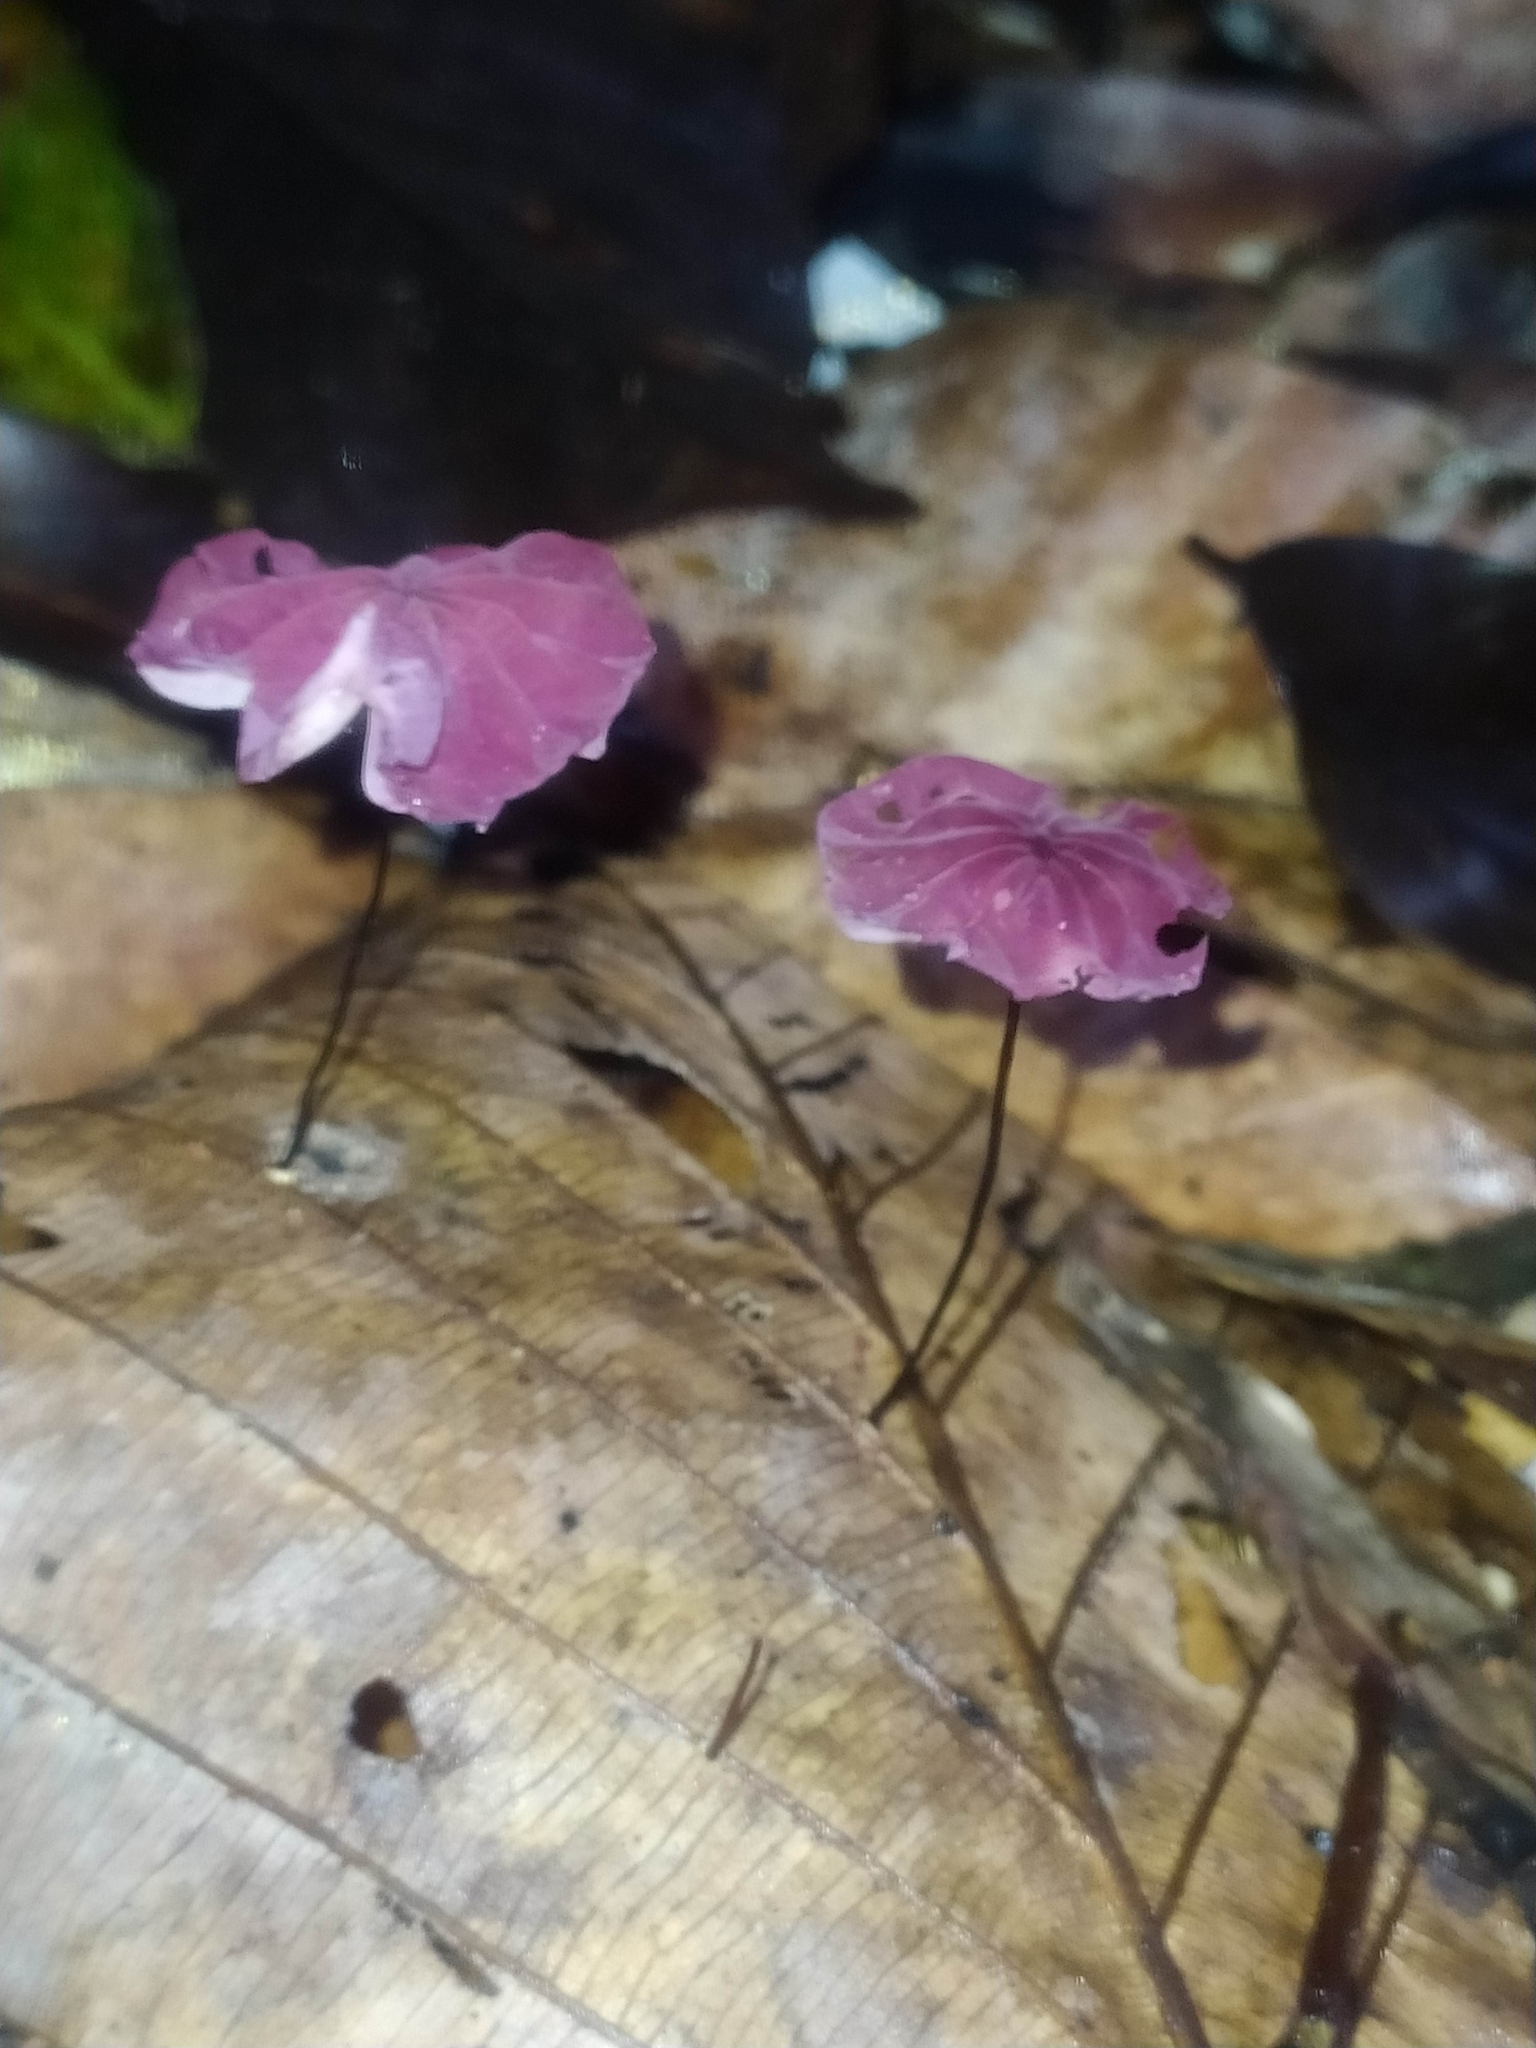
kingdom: Fungi
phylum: Basidiomycota
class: Agaricomycetes
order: Agaricales
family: Marasmiaceae
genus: Marasmius
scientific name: Marasmius haematocephalus
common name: Purple pinwheel
